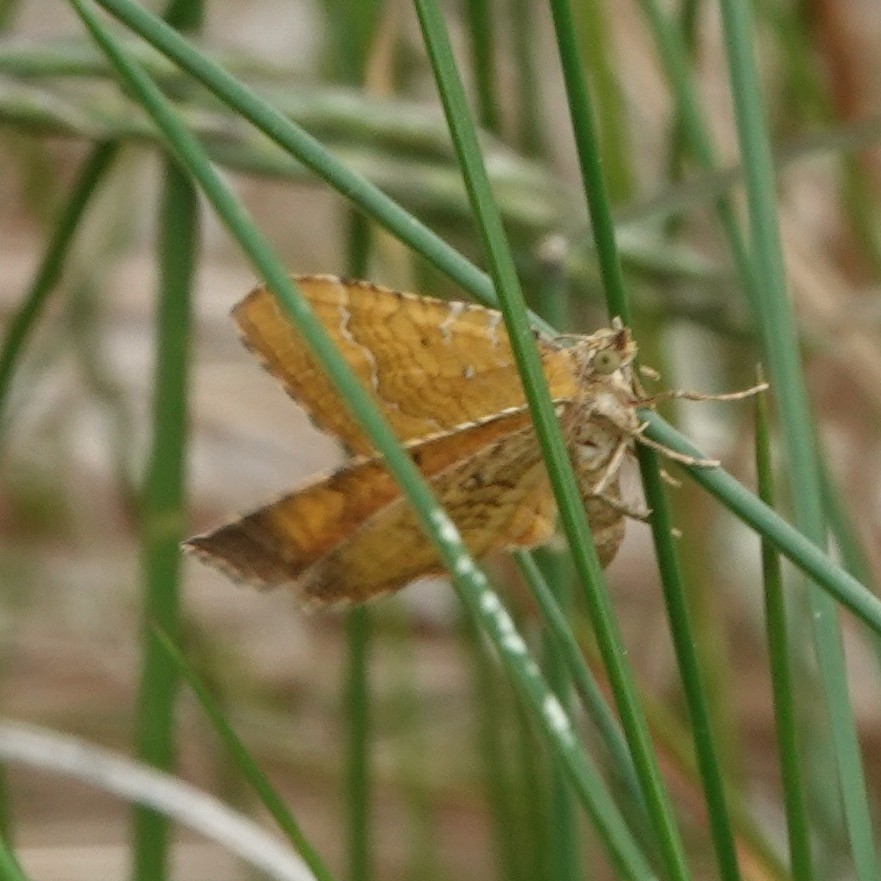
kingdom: Animalia
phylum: Arthropoda
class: Insecta
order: Lepidoptera
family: Geometridae
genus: Camptogramma
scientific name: Camptogramma bilineata
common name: Yellow shell
